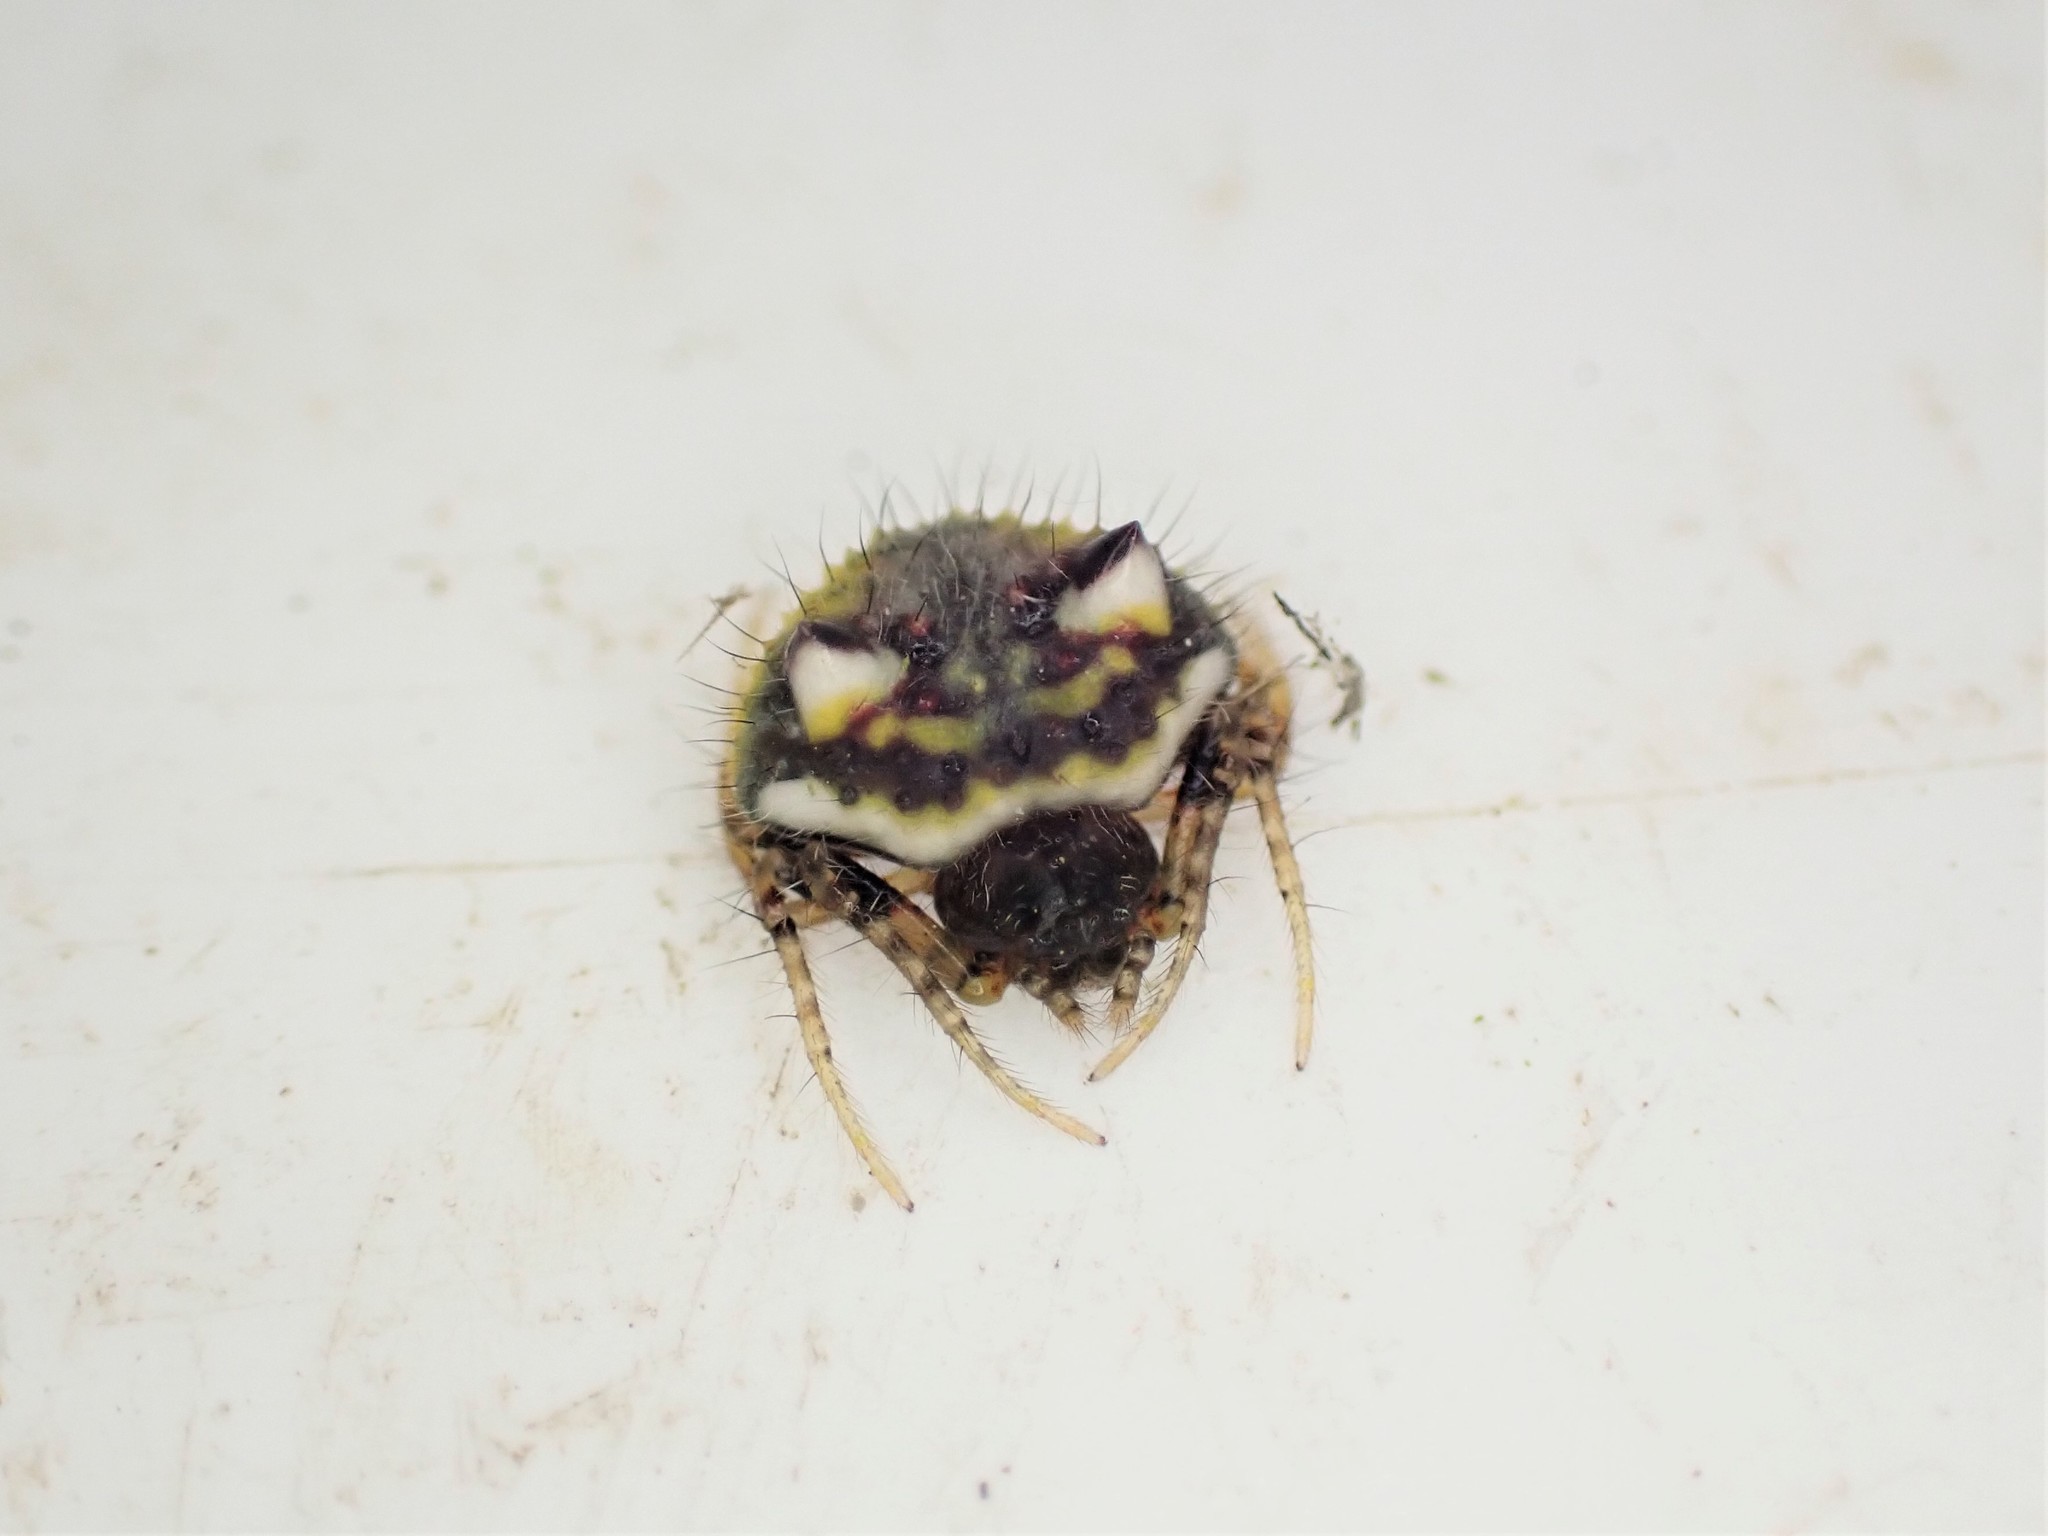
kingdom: Animalia
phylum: Arthropoda
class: Arachnida
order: Araneae
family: Araneidae
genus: Poecilopachys
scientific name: Poecilopachys australasia
